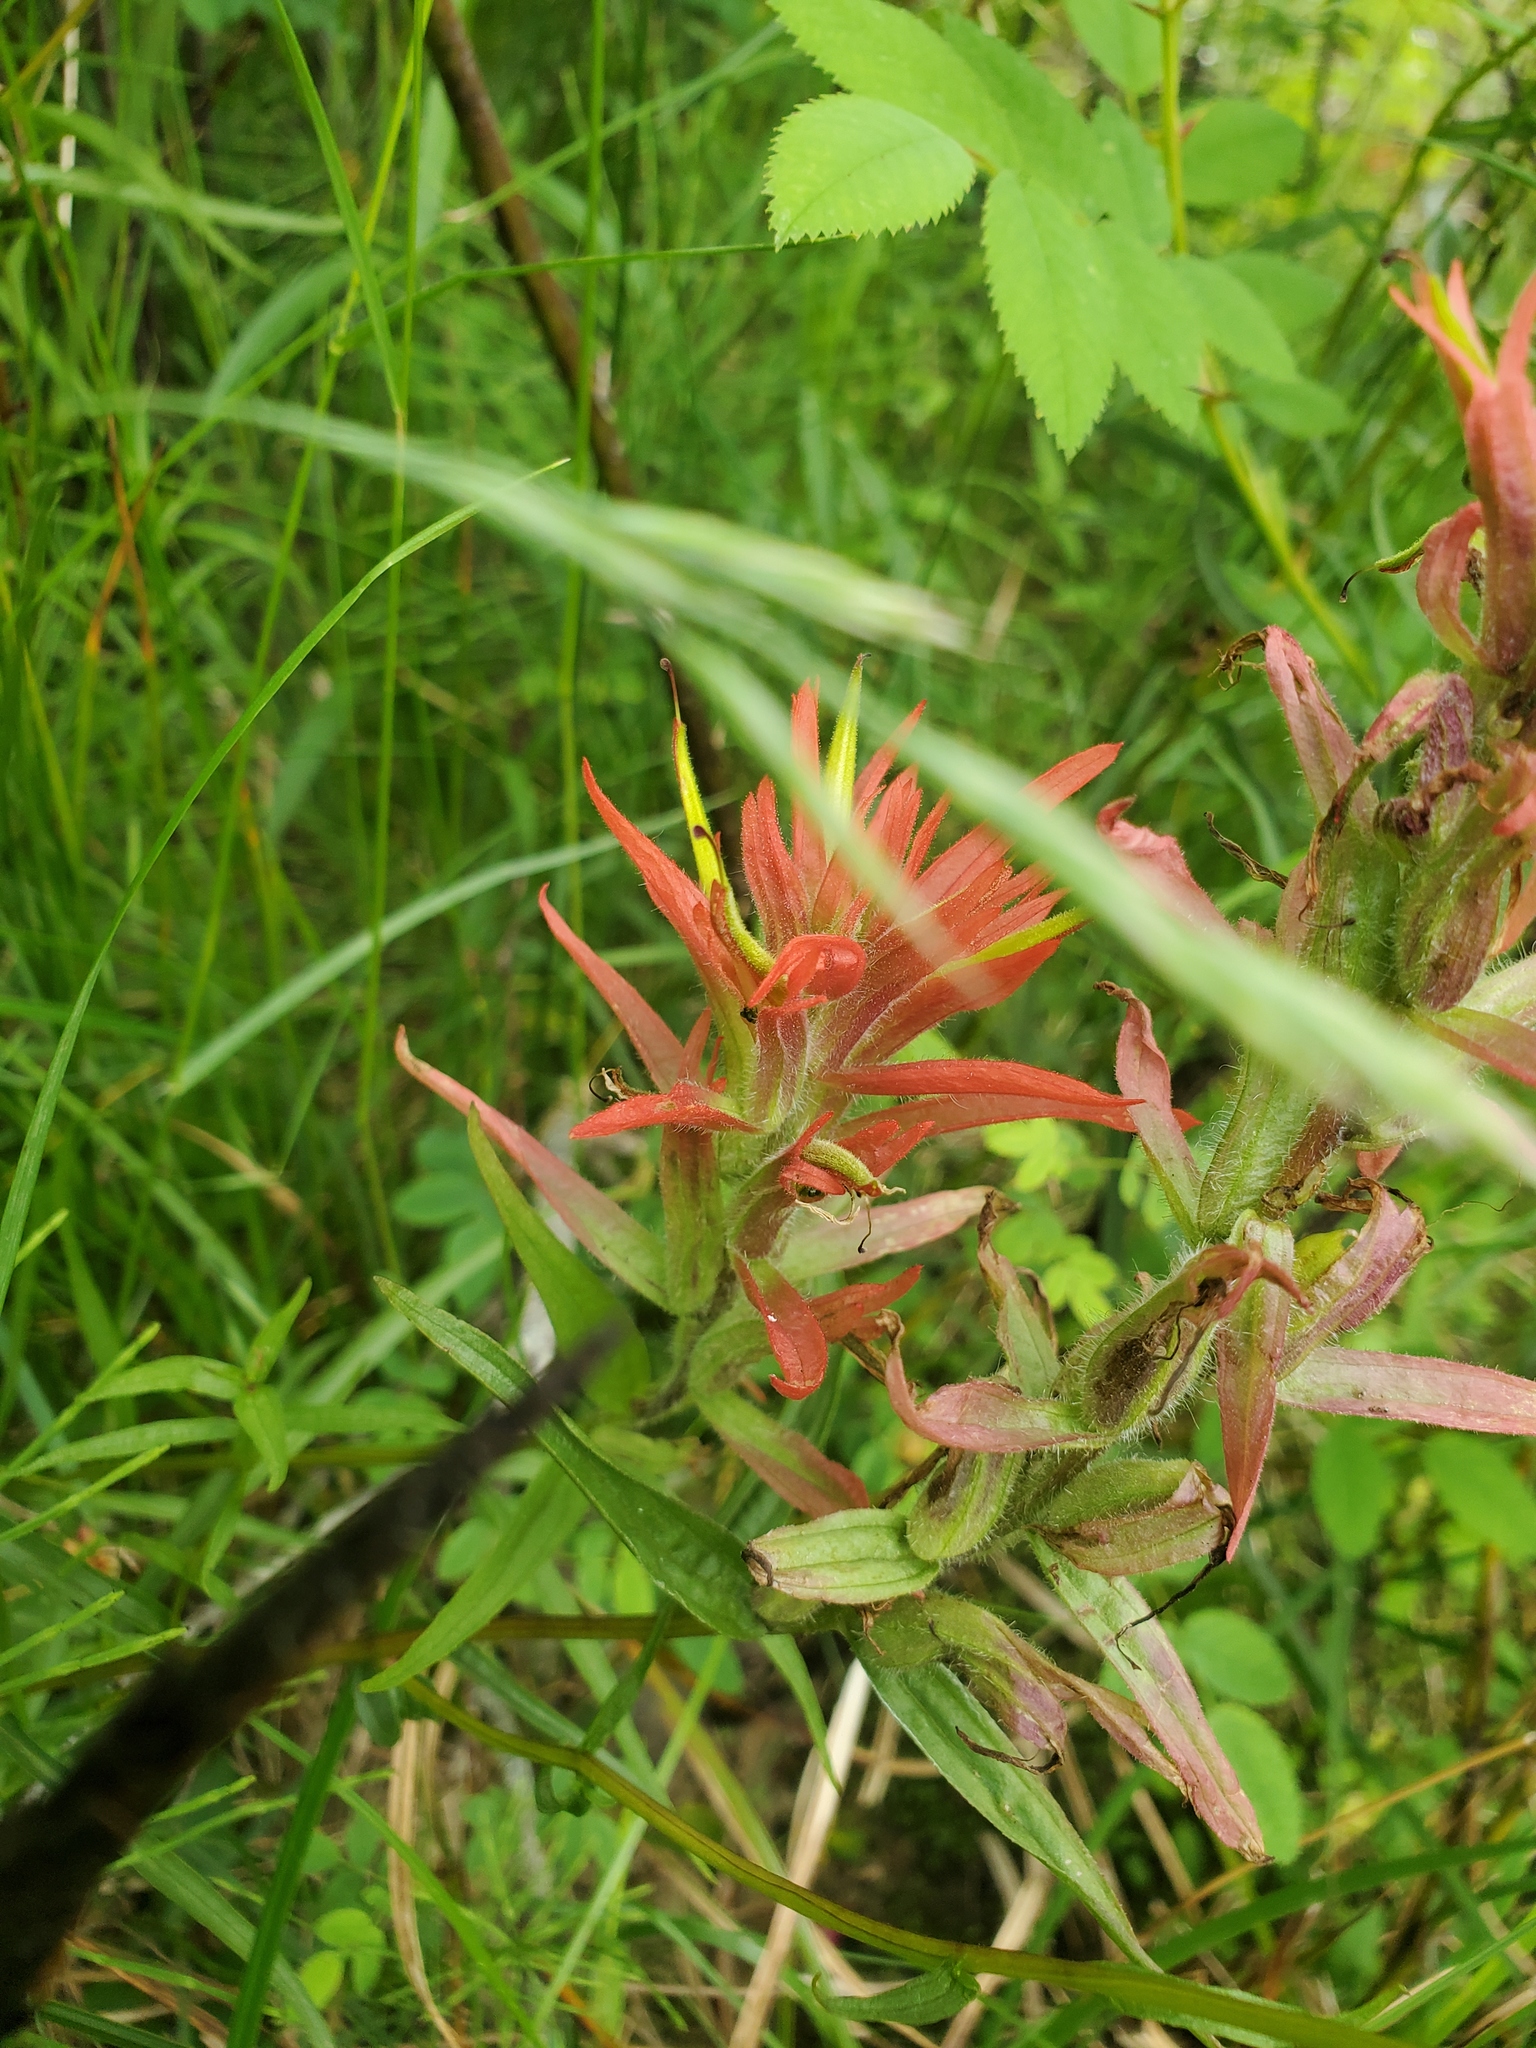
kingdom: Plantae
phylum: Tracheophyta
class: Magnoliopsida
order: Lamiales
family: Orobanchaceae
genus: Castilleja
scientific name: Castilleja miniata
